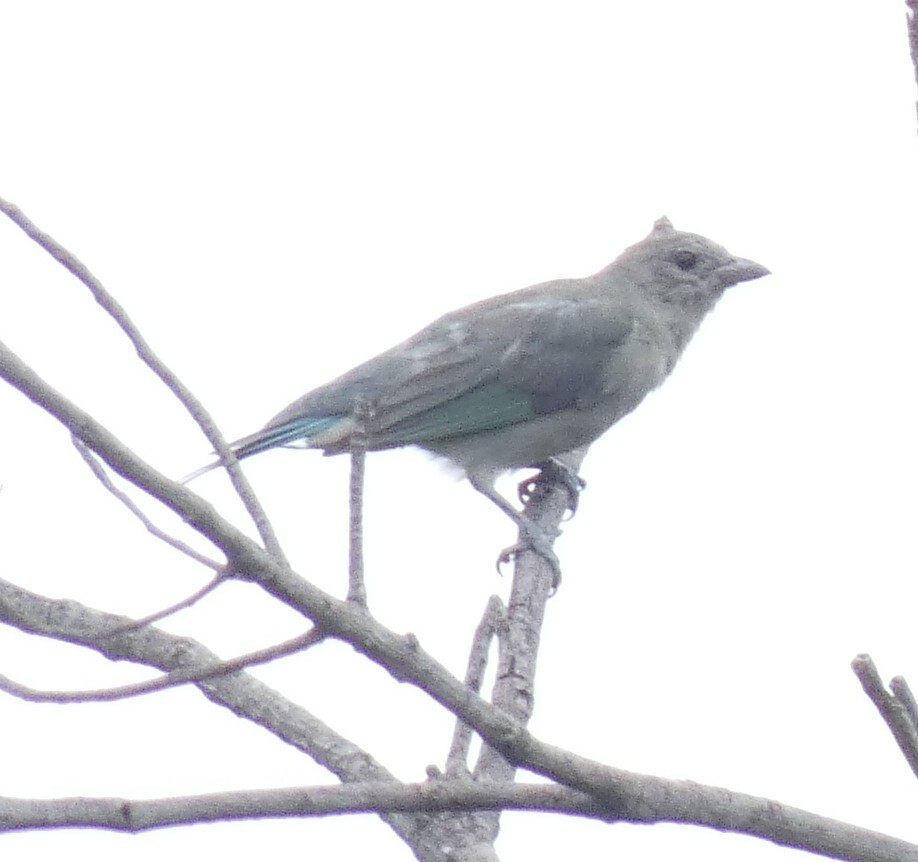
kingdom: Animalia
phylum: Chordata
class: Aves
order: Passeriformes
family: Thraupidae
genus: Thraupis
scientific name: Thraupis sayaca
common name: Sayaca tanager
